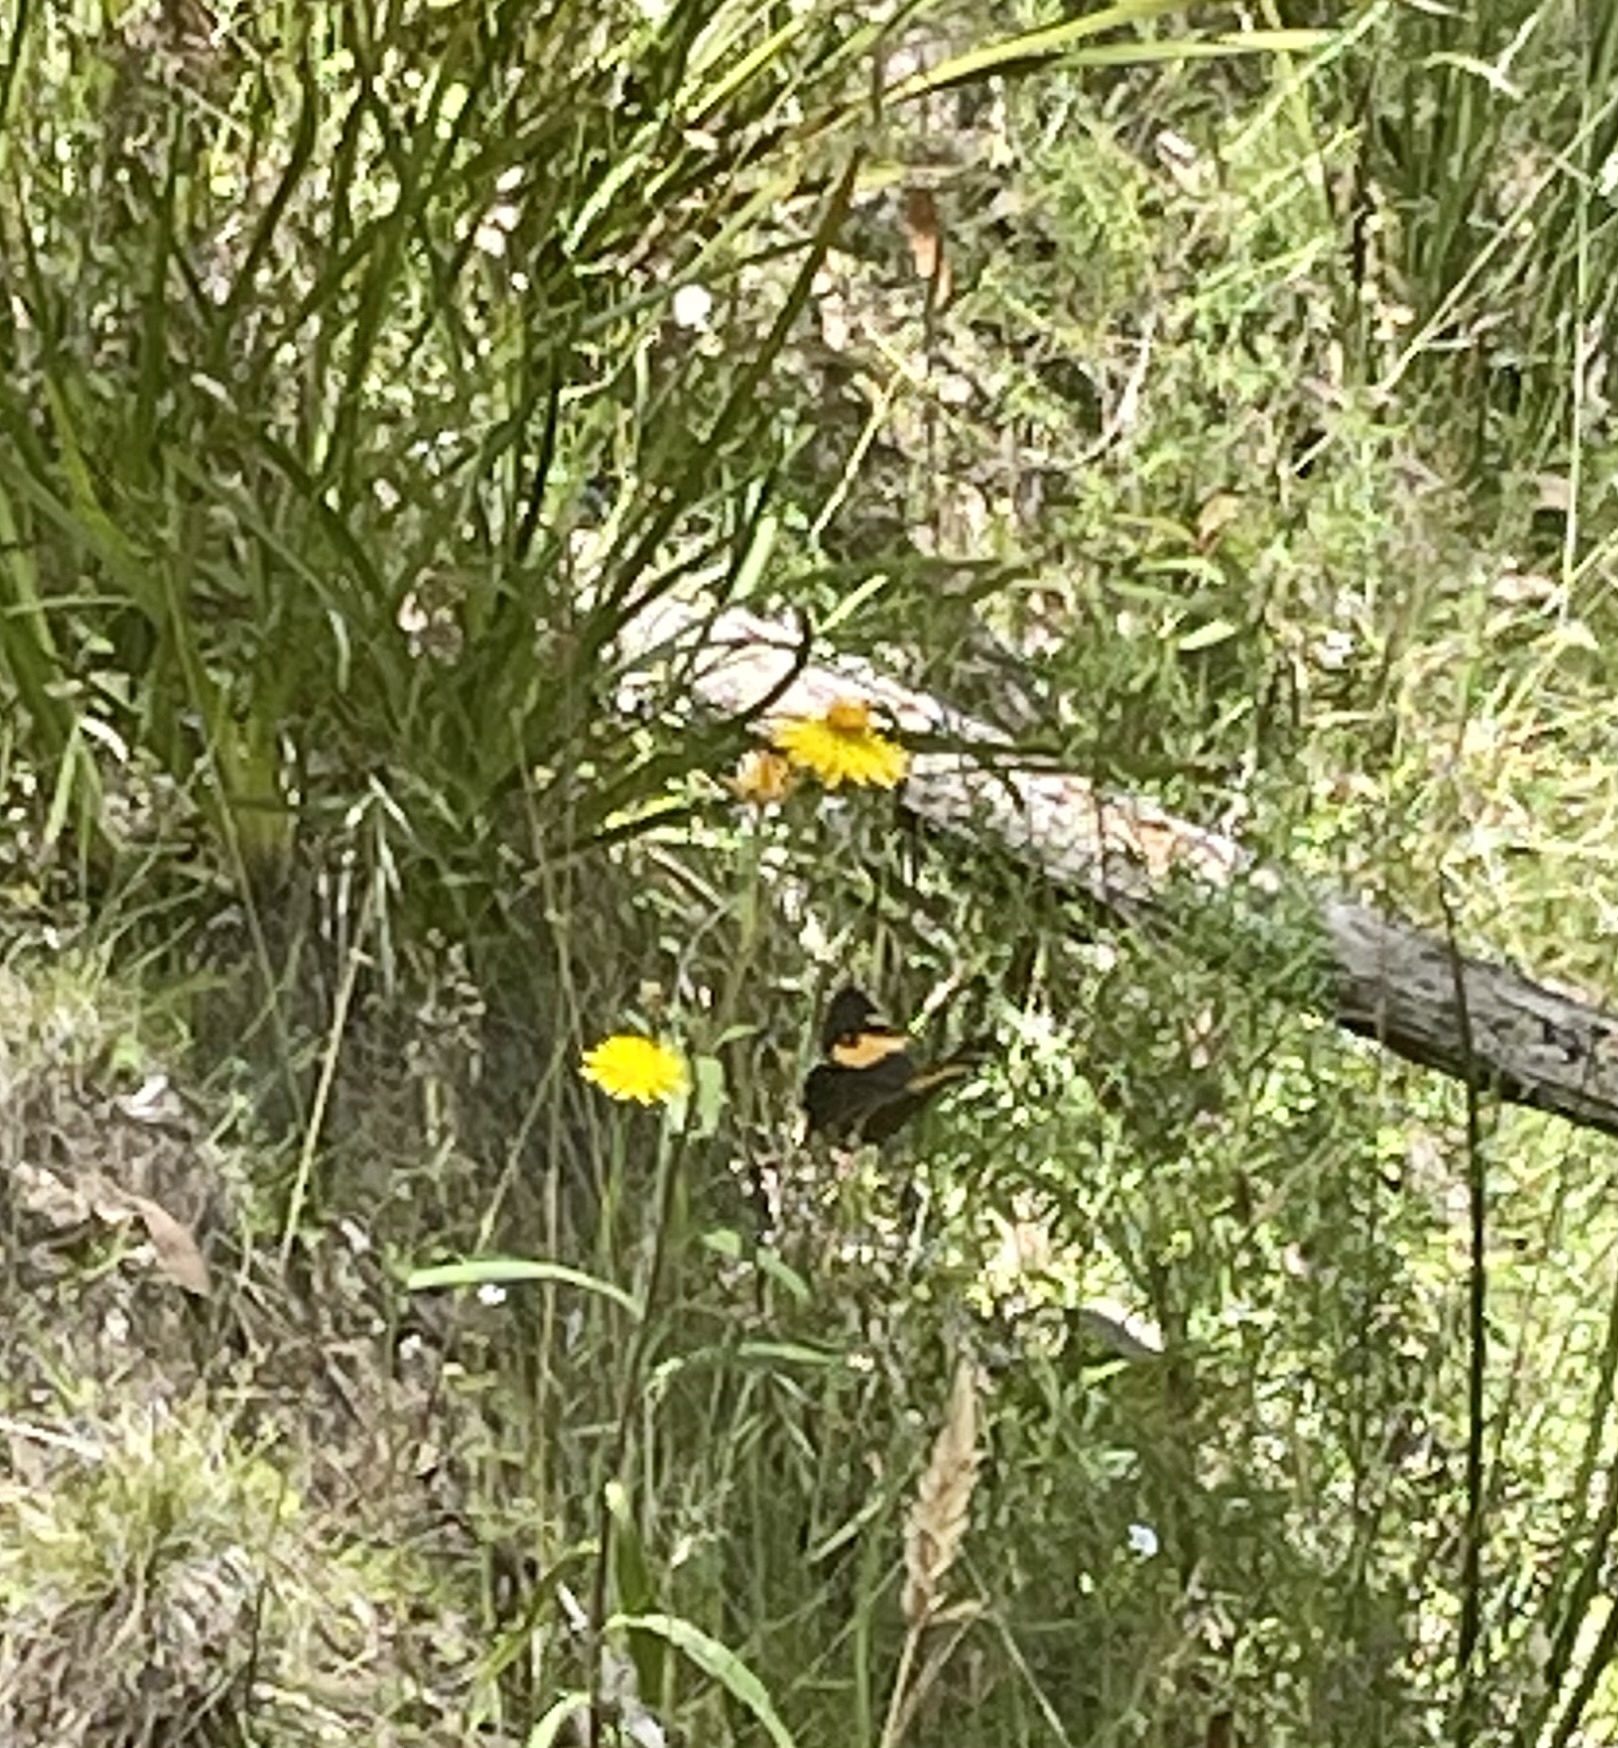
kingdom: Animalia
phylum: Arthropoda
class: Insecta
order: Lepidoptera
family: Nymphalidae
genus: Tisiphone
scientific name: Tisiphone abeona
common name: Swordgrass brown
